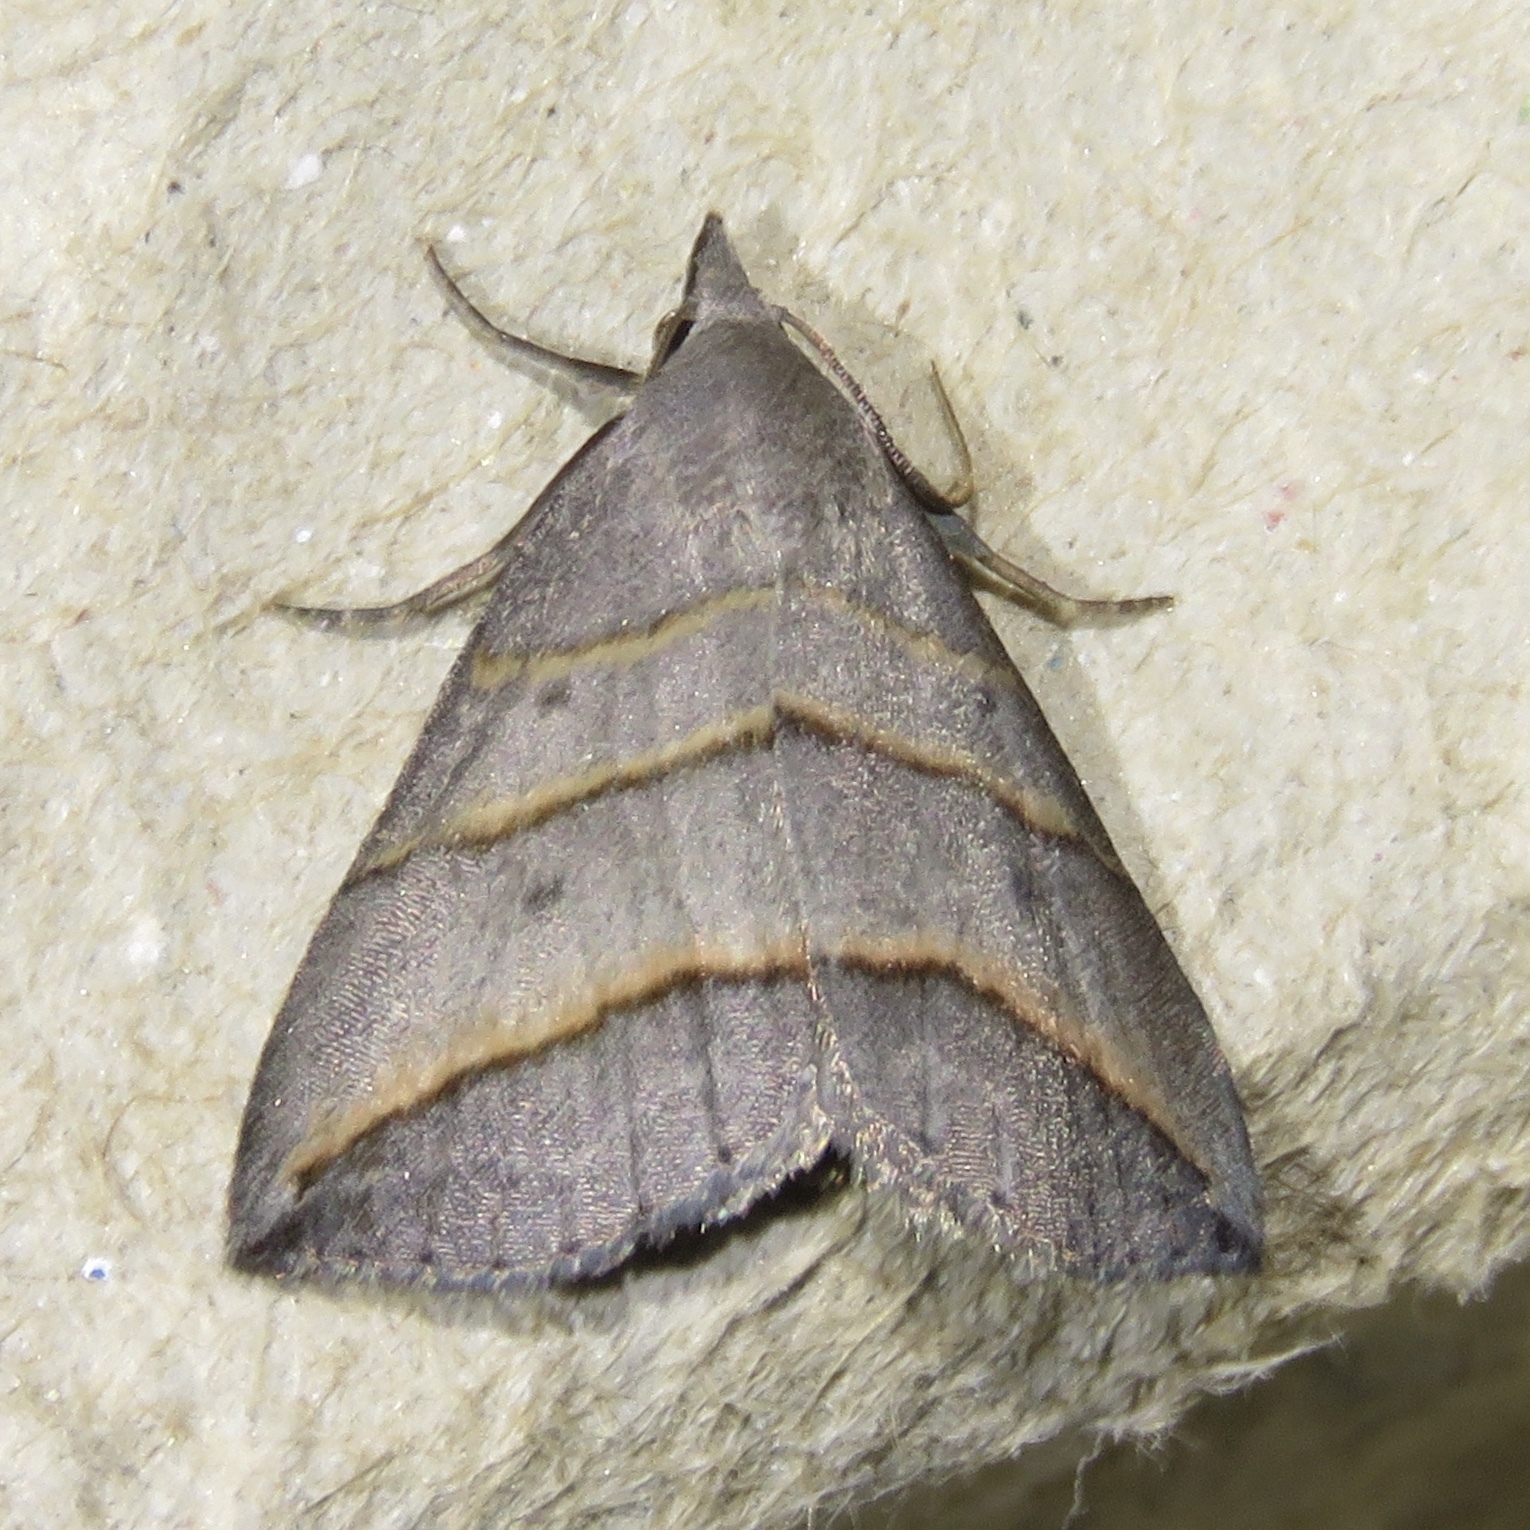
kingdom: Animalia
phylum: Arthropoda
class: Insecta
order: Lepidoptera
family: Erebidae
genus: Colobochyla
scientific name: Colobochyla interpuncta
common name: Yellow-lined owlet
